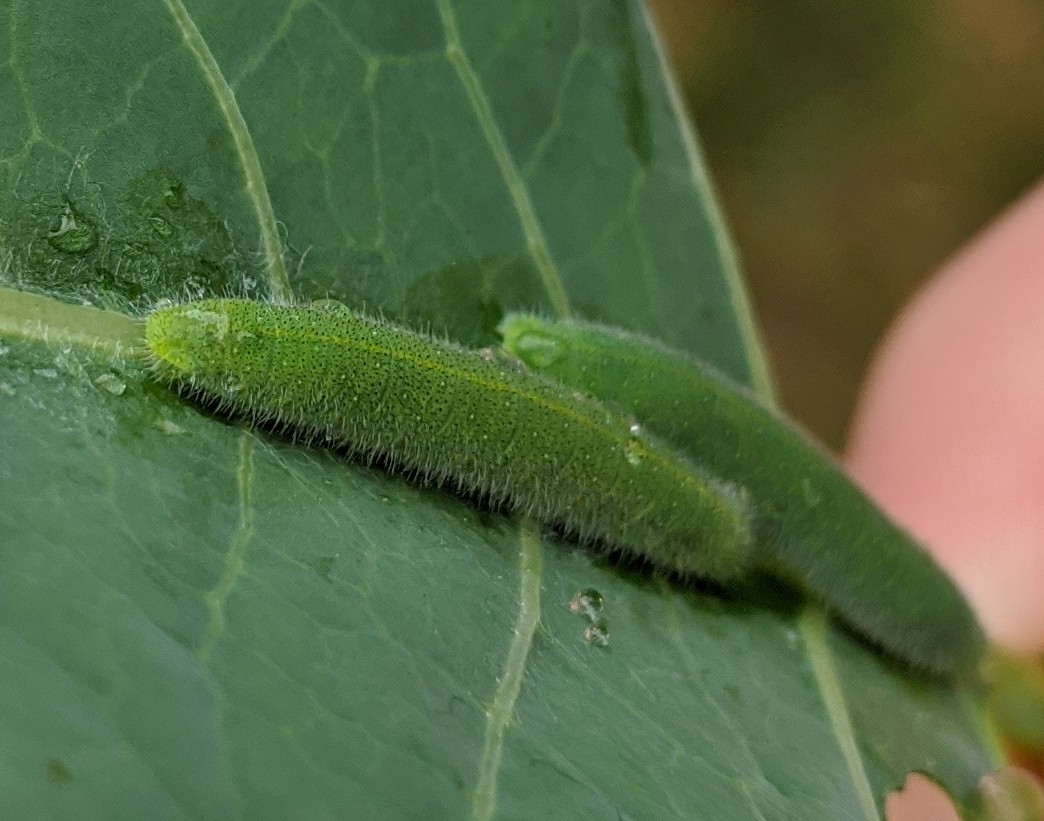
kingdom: Animalia
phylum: Arthropoda
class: Insecta
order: Lepidoptera
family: Pieridae
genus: Pieris
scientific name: Pieris rapae
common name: Small white
